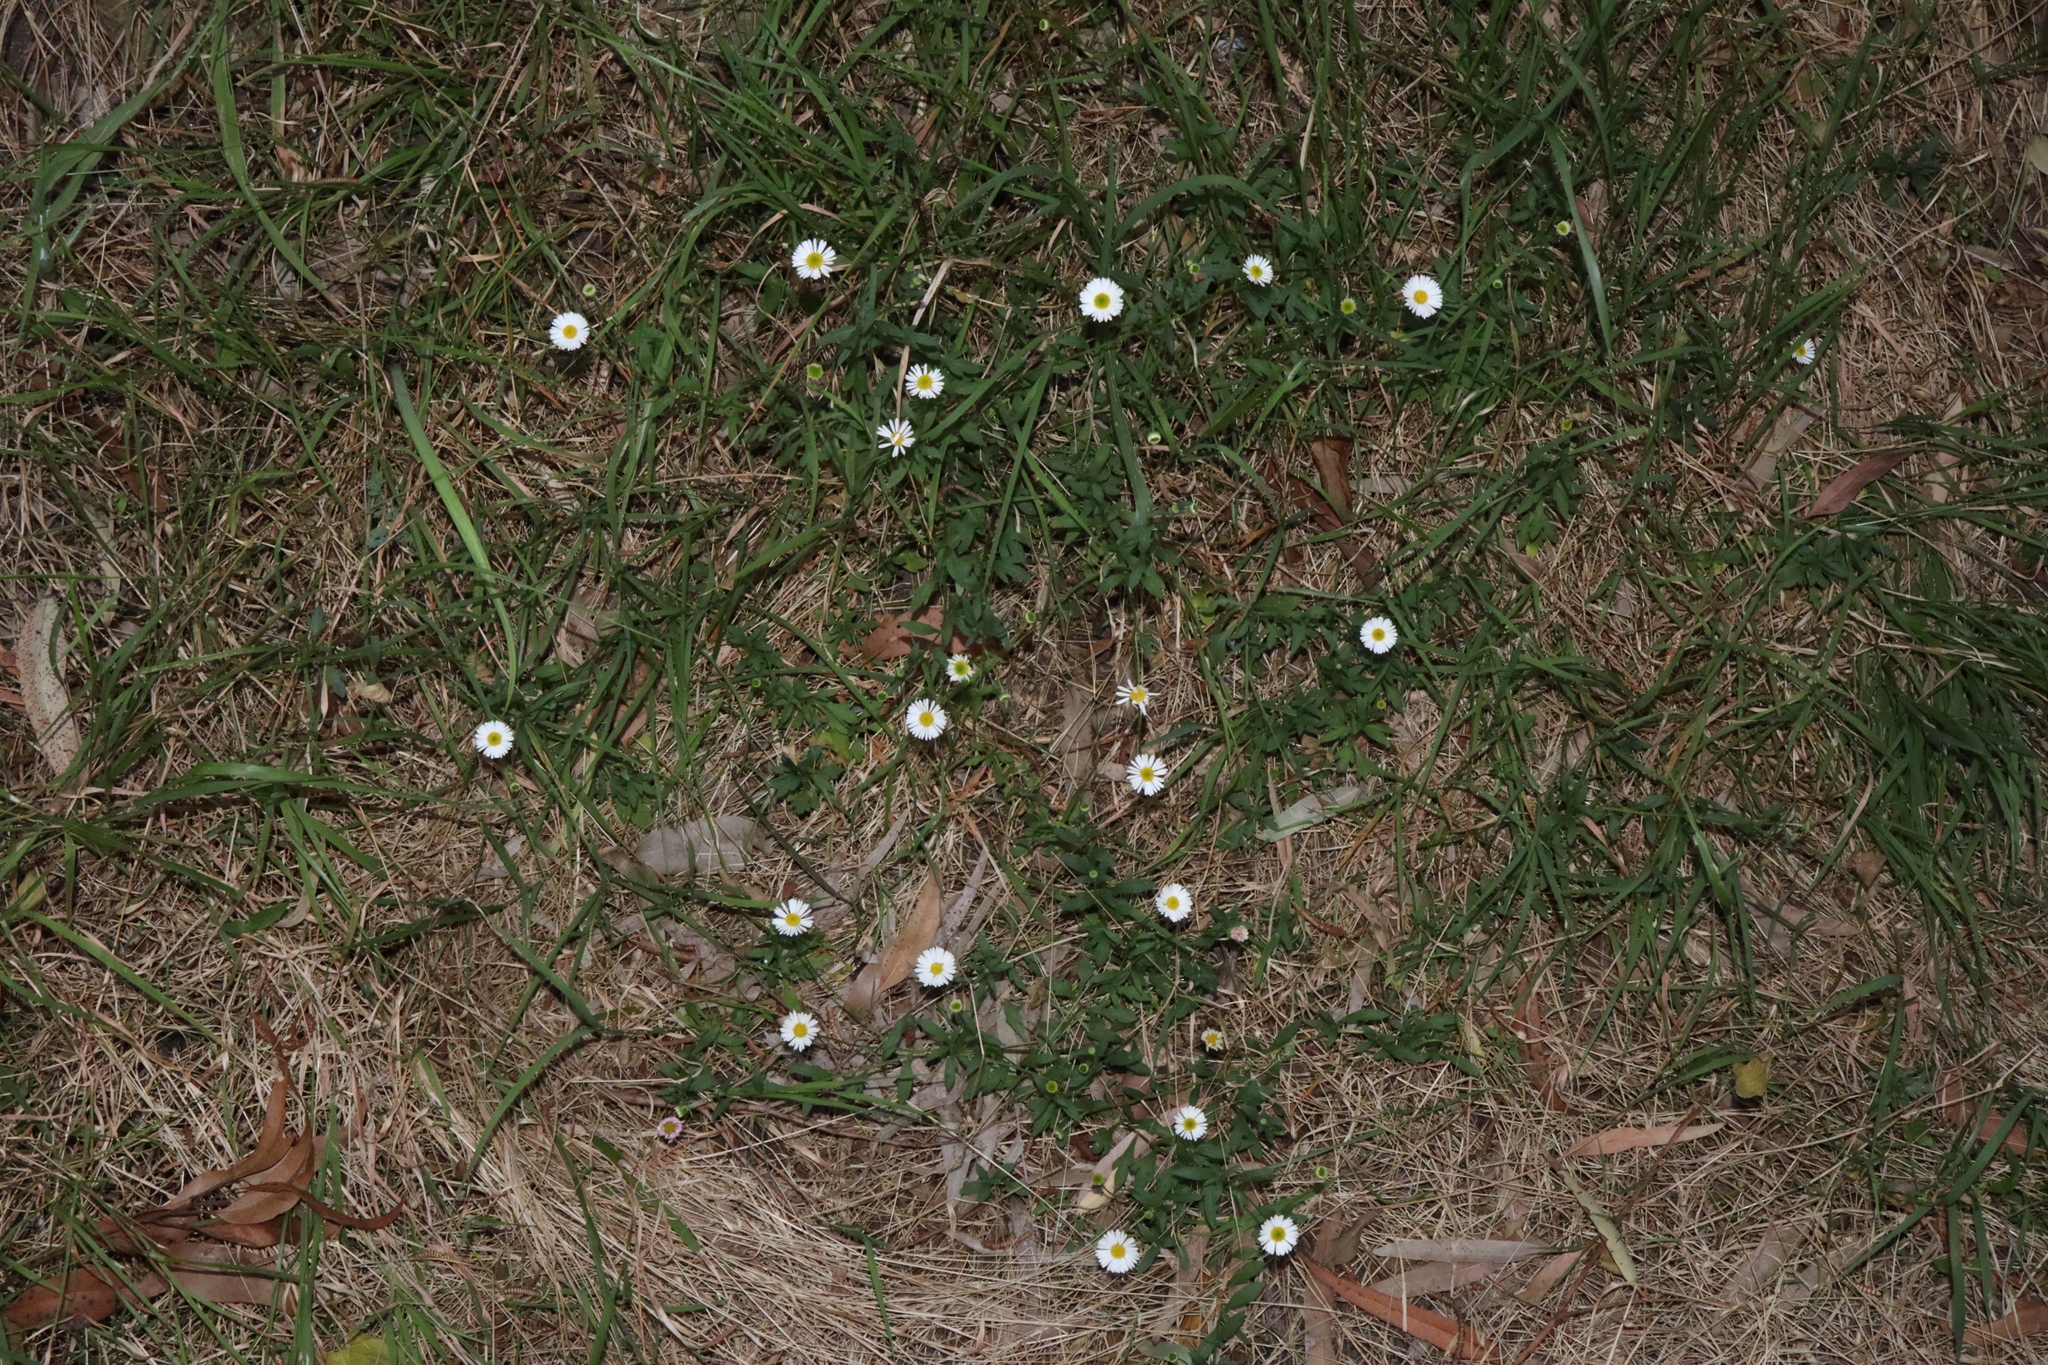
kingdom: Plantae
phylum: Tracheophyta
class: Magnoliopsida
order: Asterales
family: Asteraceae
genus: Erigeron
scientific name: Erigeron karvinskianus
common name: Mexican fleabane
